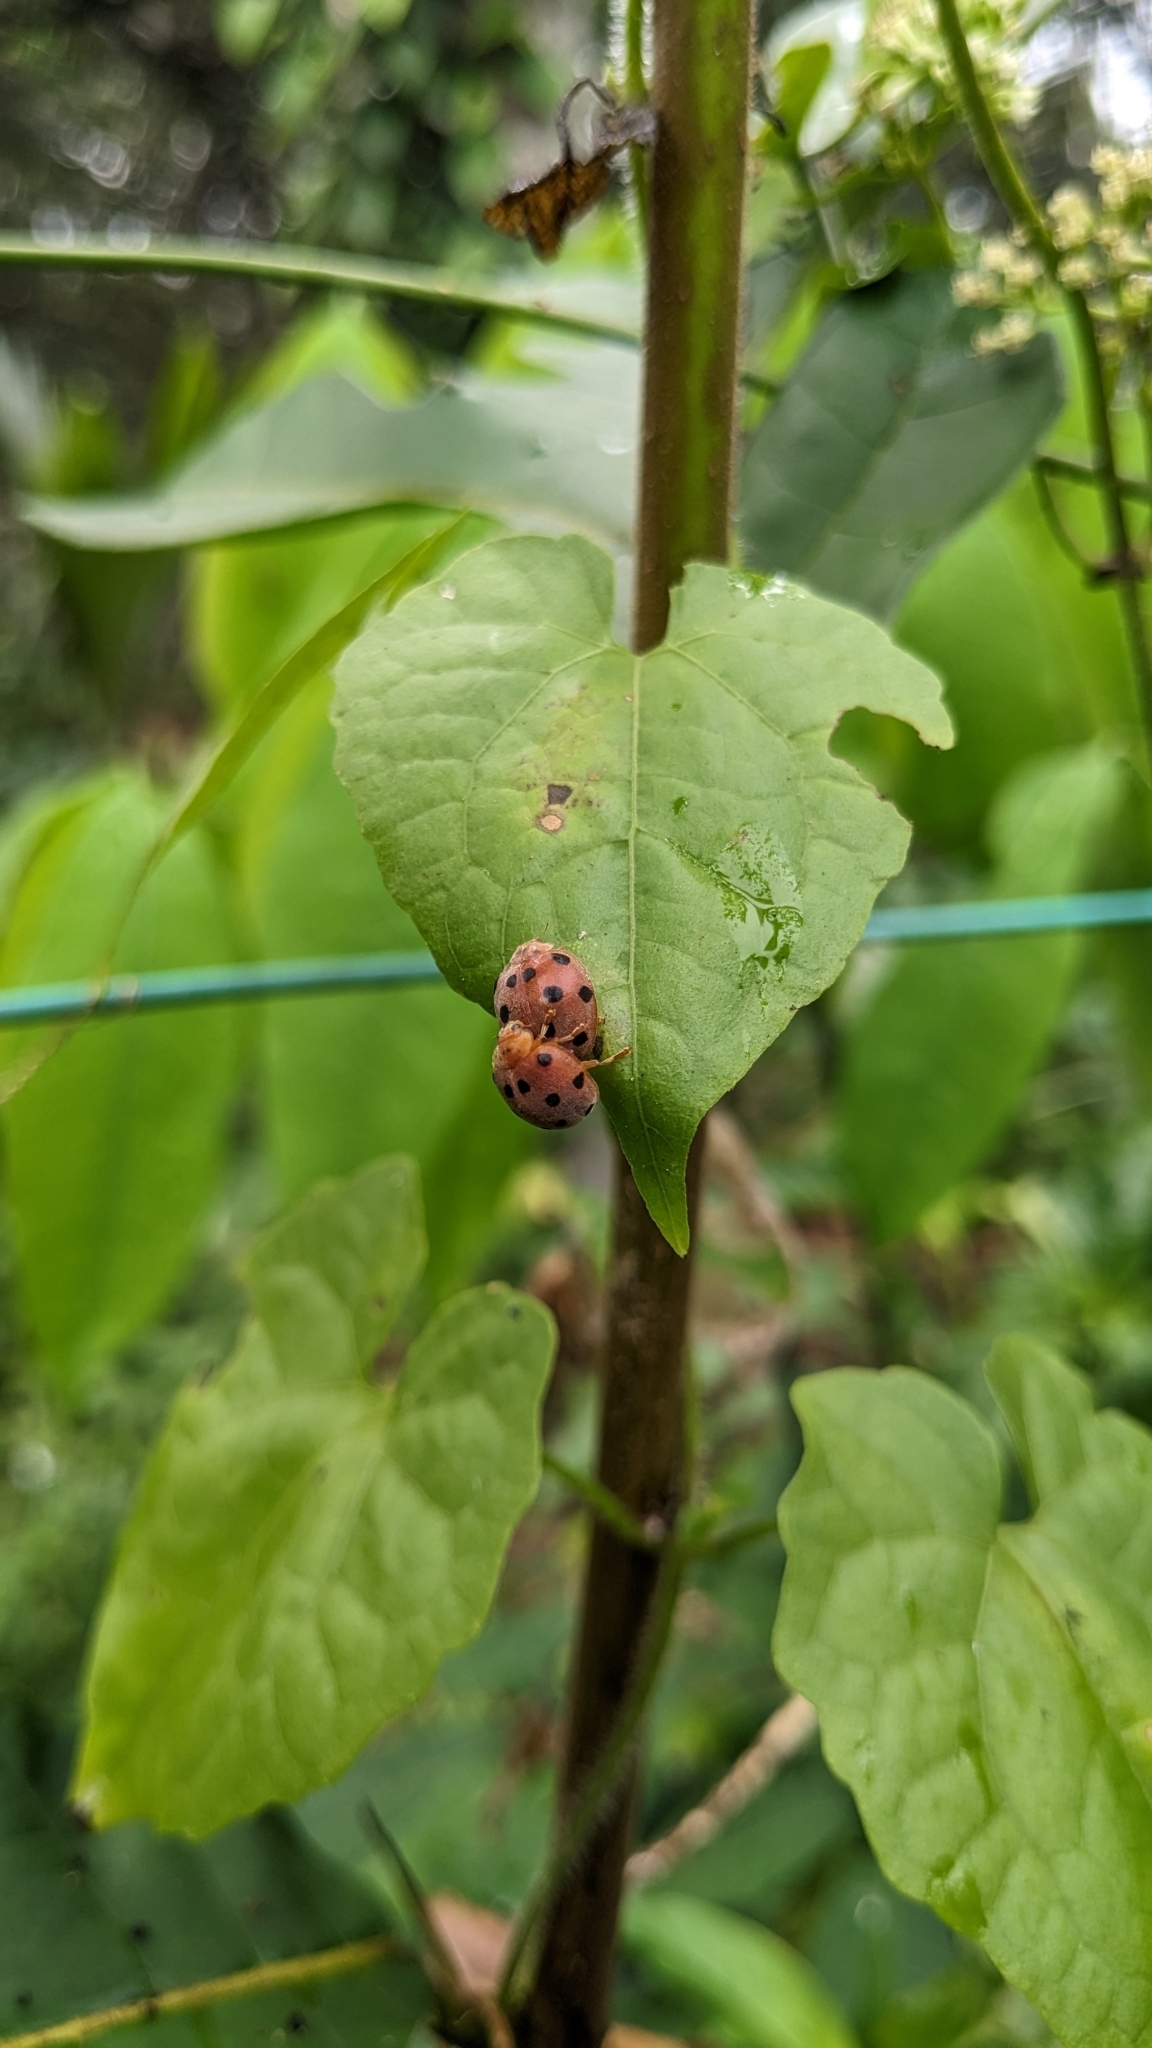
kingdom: Animalia
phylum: Arthropoda
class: Insecta
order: Coleoptera
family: Coccinellidae
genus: Henosepilachna
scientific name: Henosepilachna vigintioctopunctata
